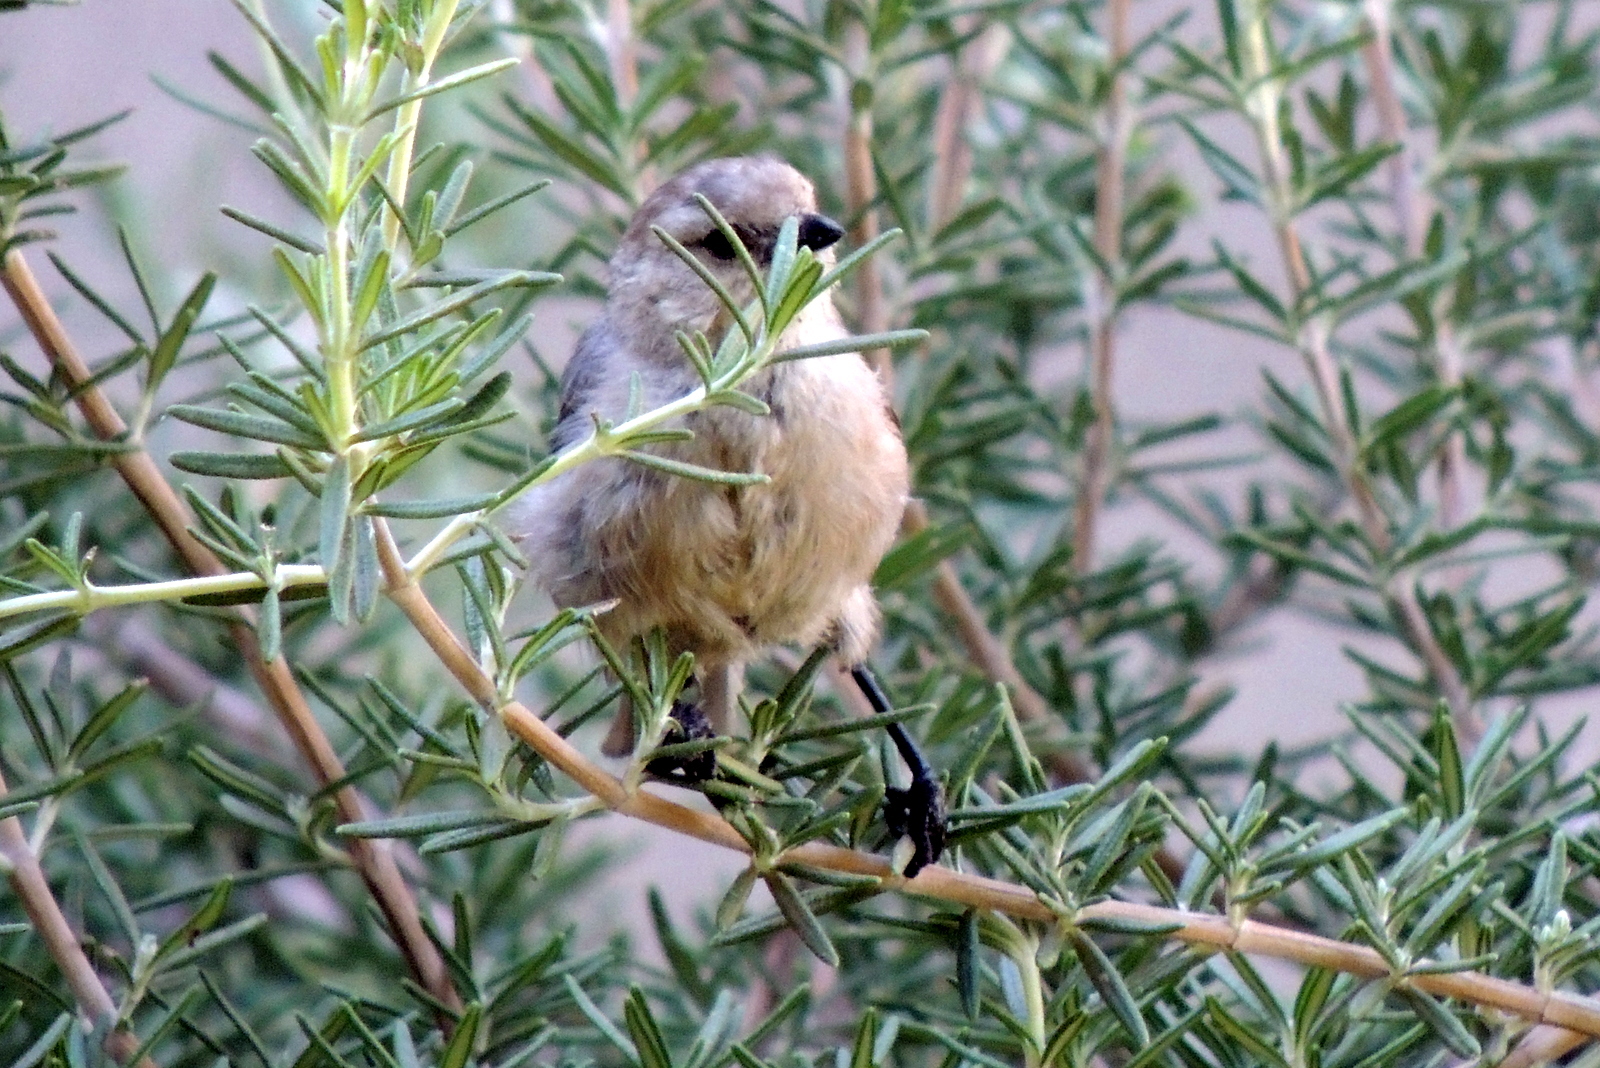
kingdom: Animalia
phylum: Chordata
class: Aves
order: Passeriformes
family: Aegithalidae
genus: Psaltriparus
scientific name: Psaltriparus minimus
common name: American bushtit
